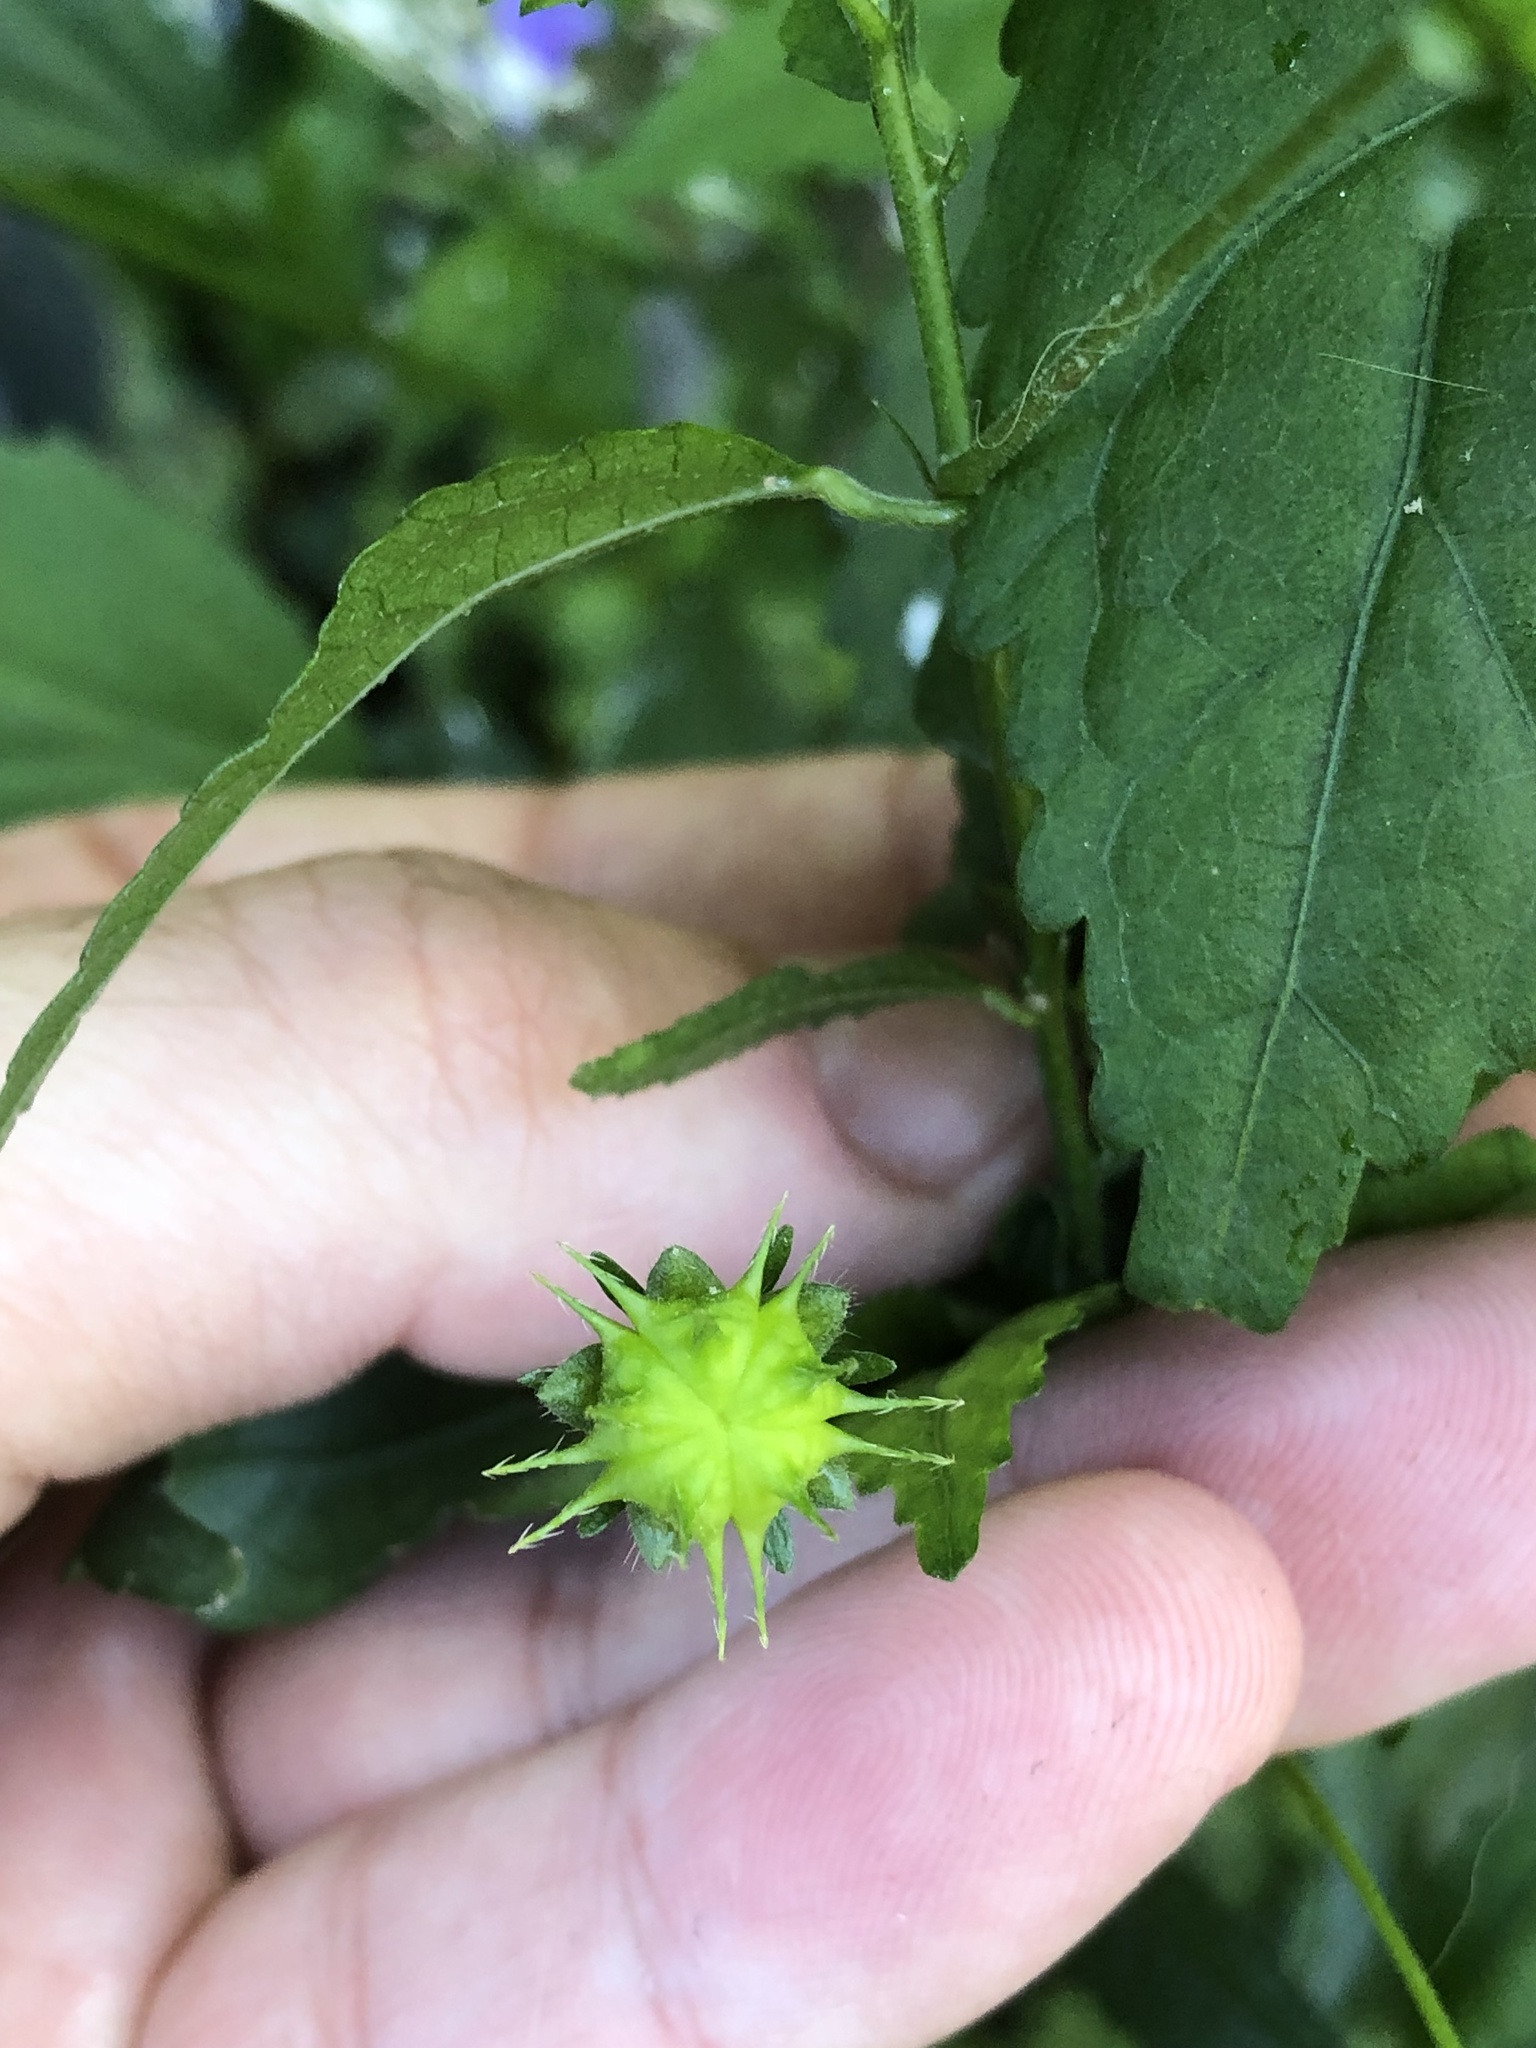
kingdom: Plantae
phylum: Tracheophyta
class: Magnoliopsida
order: Malvales
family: Malvaceae
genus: Pavonia
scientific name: Pavonia sepium
